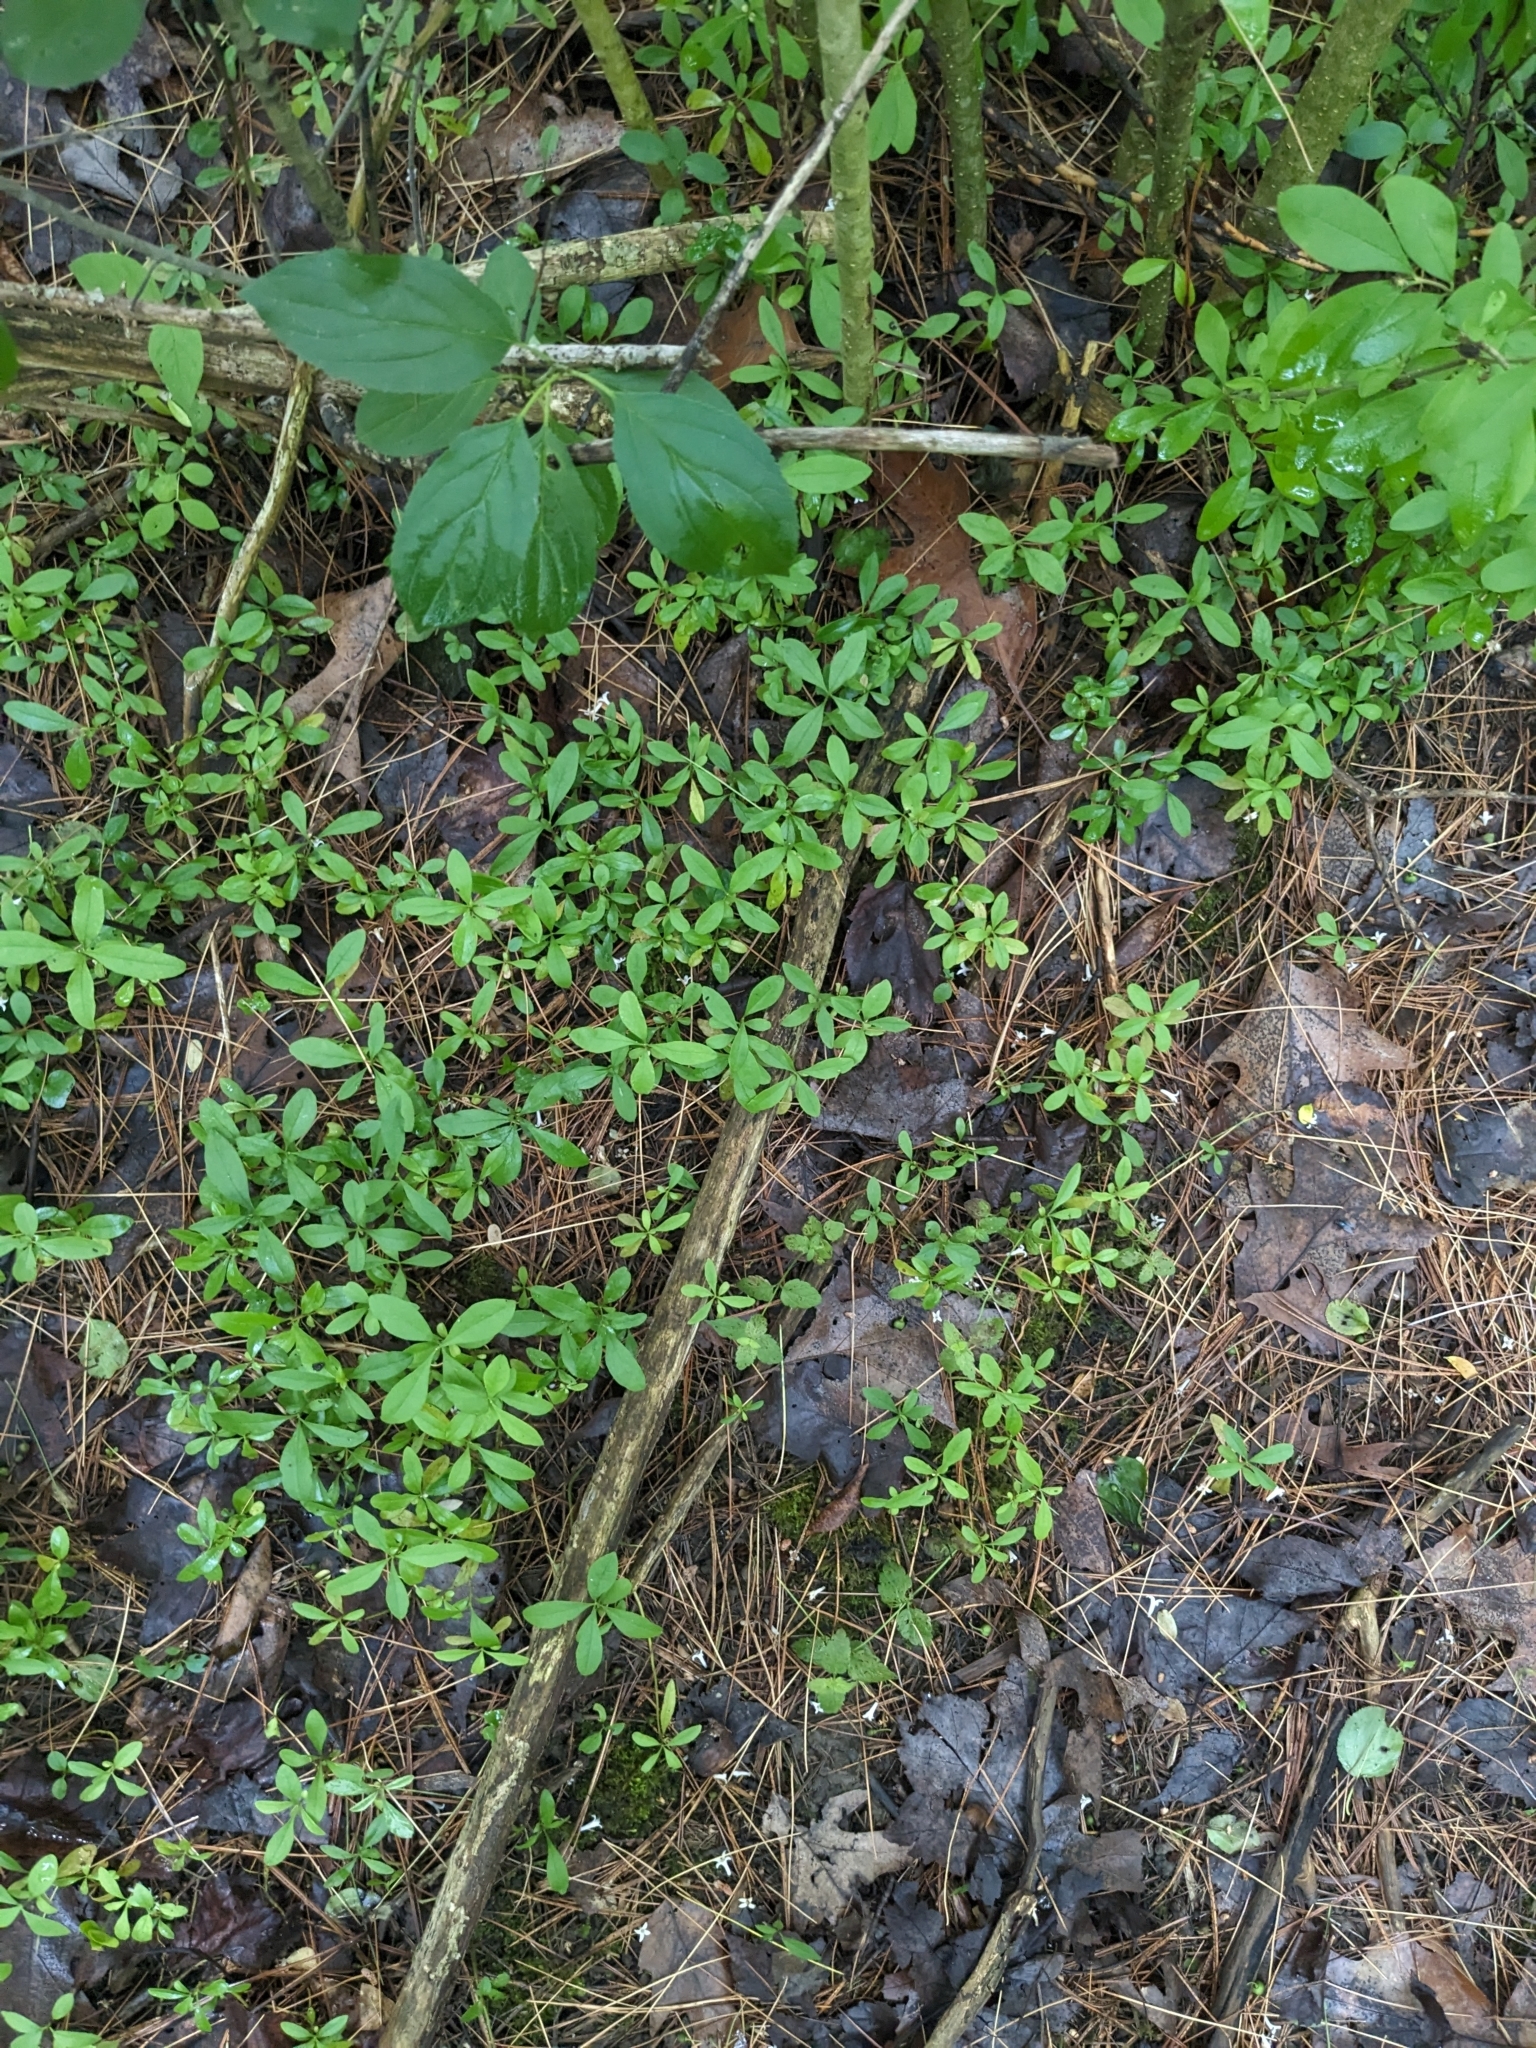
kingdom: Plantae
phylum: Tracheophyta
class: Magnoliopsida
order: Lamiales
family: Oleaceae
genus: Ligustrum
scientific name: Ligustrum obtusifolium
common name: Border privet
